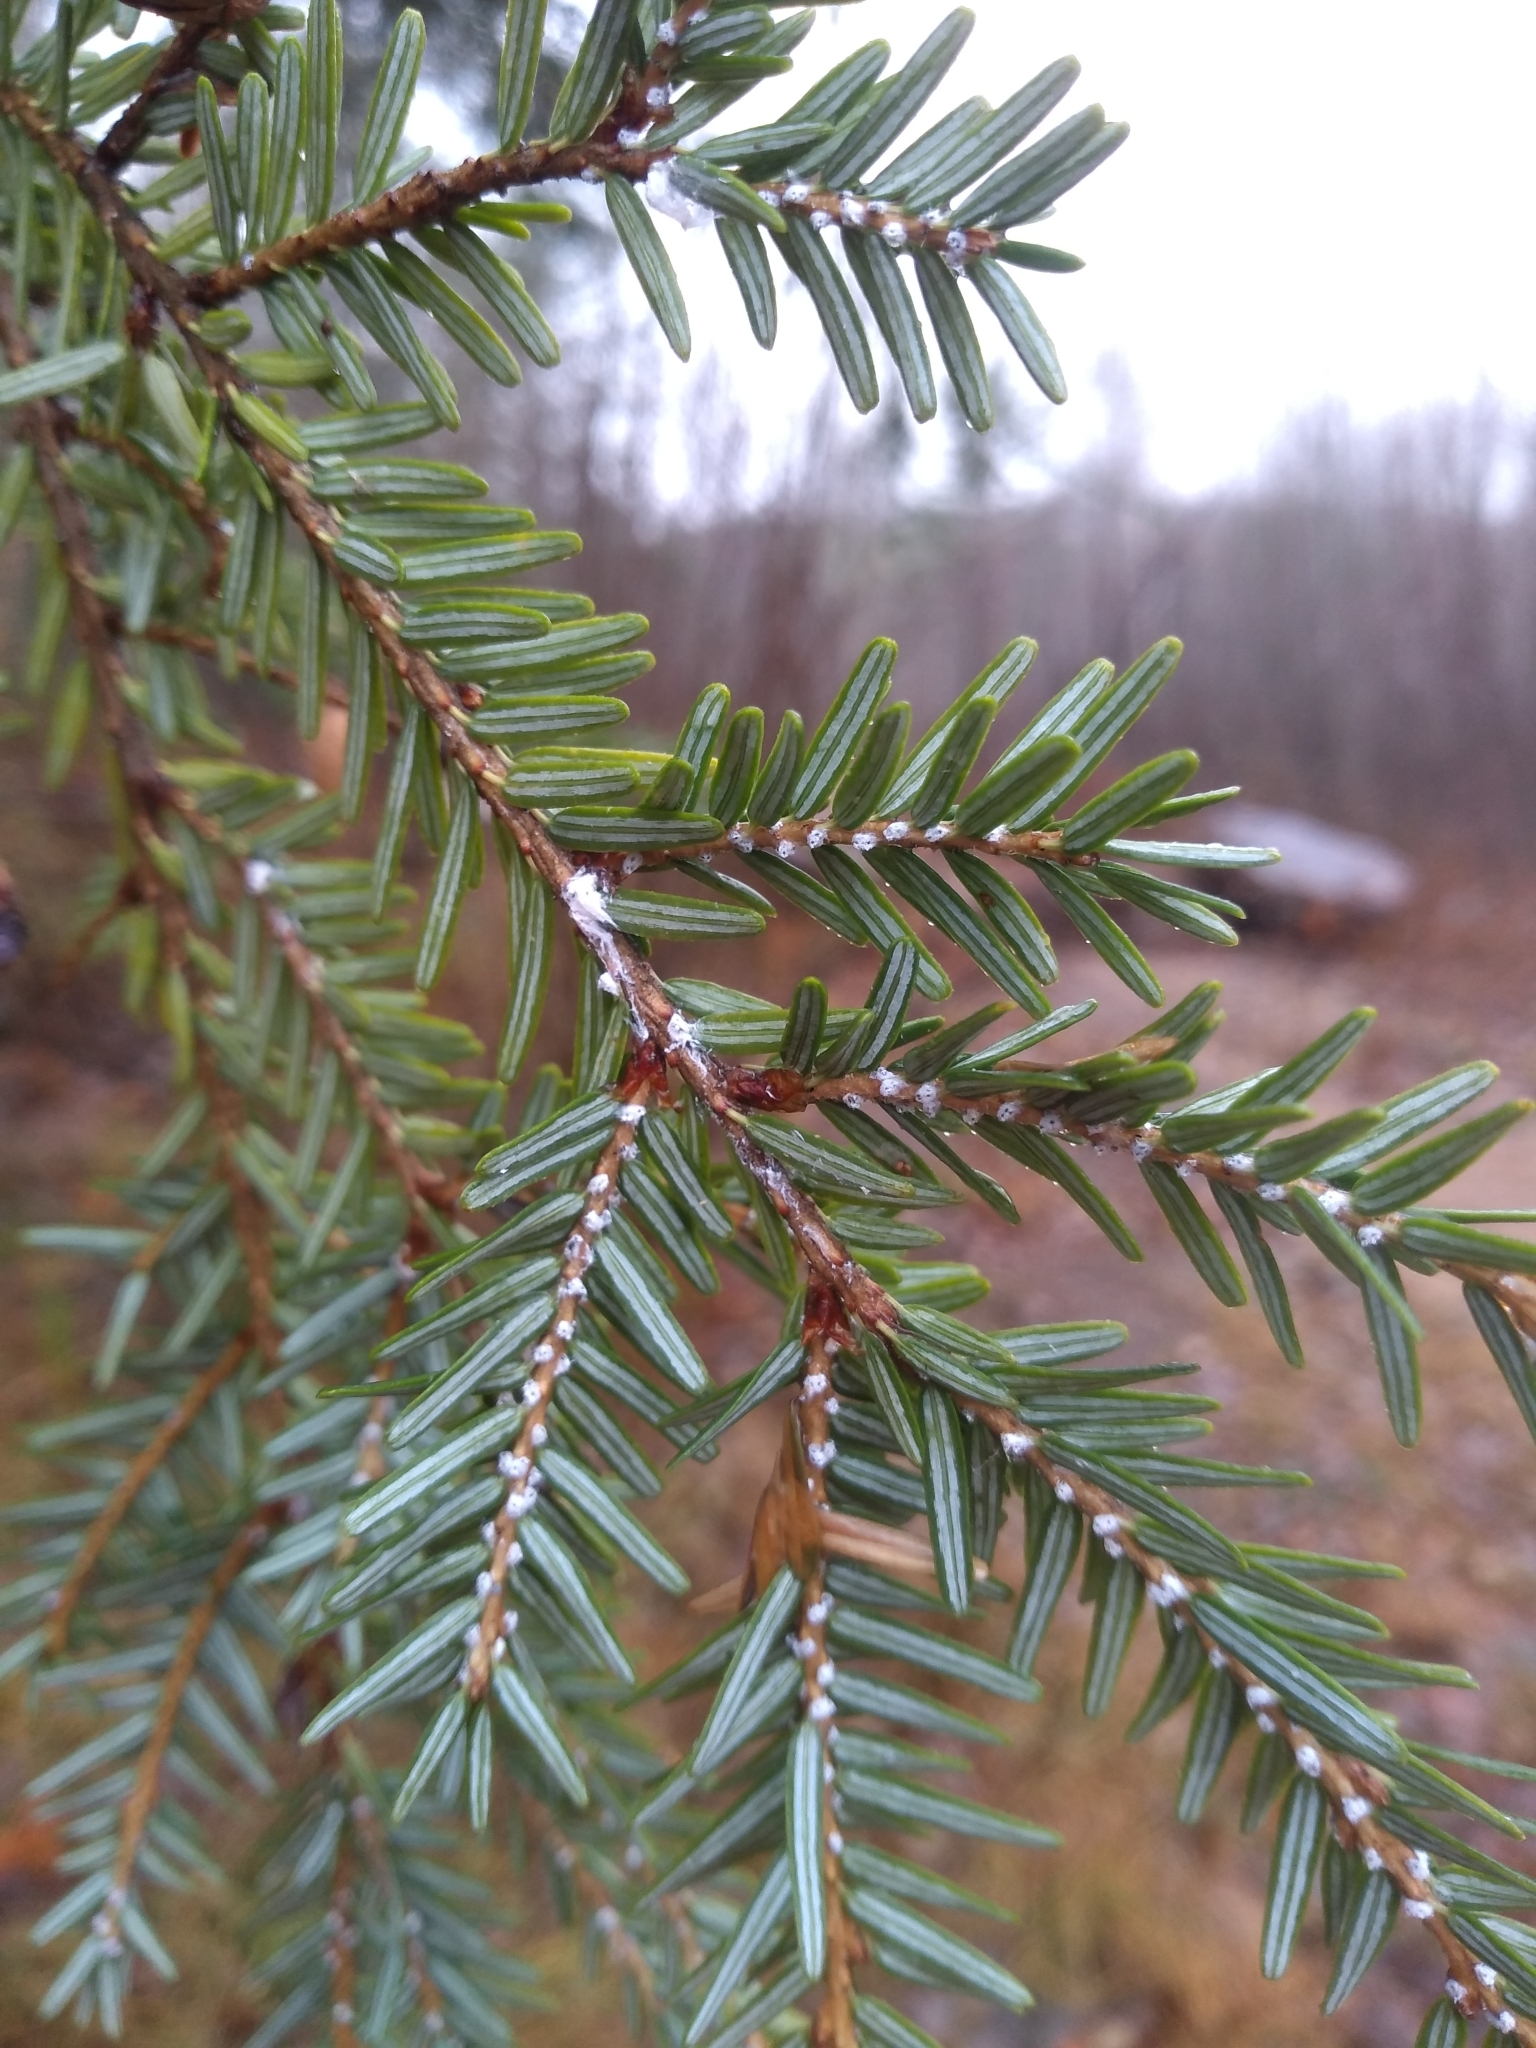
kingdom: Animalia
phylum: Arthropoda
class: Insecta
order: Hemiptera
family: Adelgidae
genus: Adelges
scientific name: Adelges tsugae
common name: Hemlock woolly adelgid
